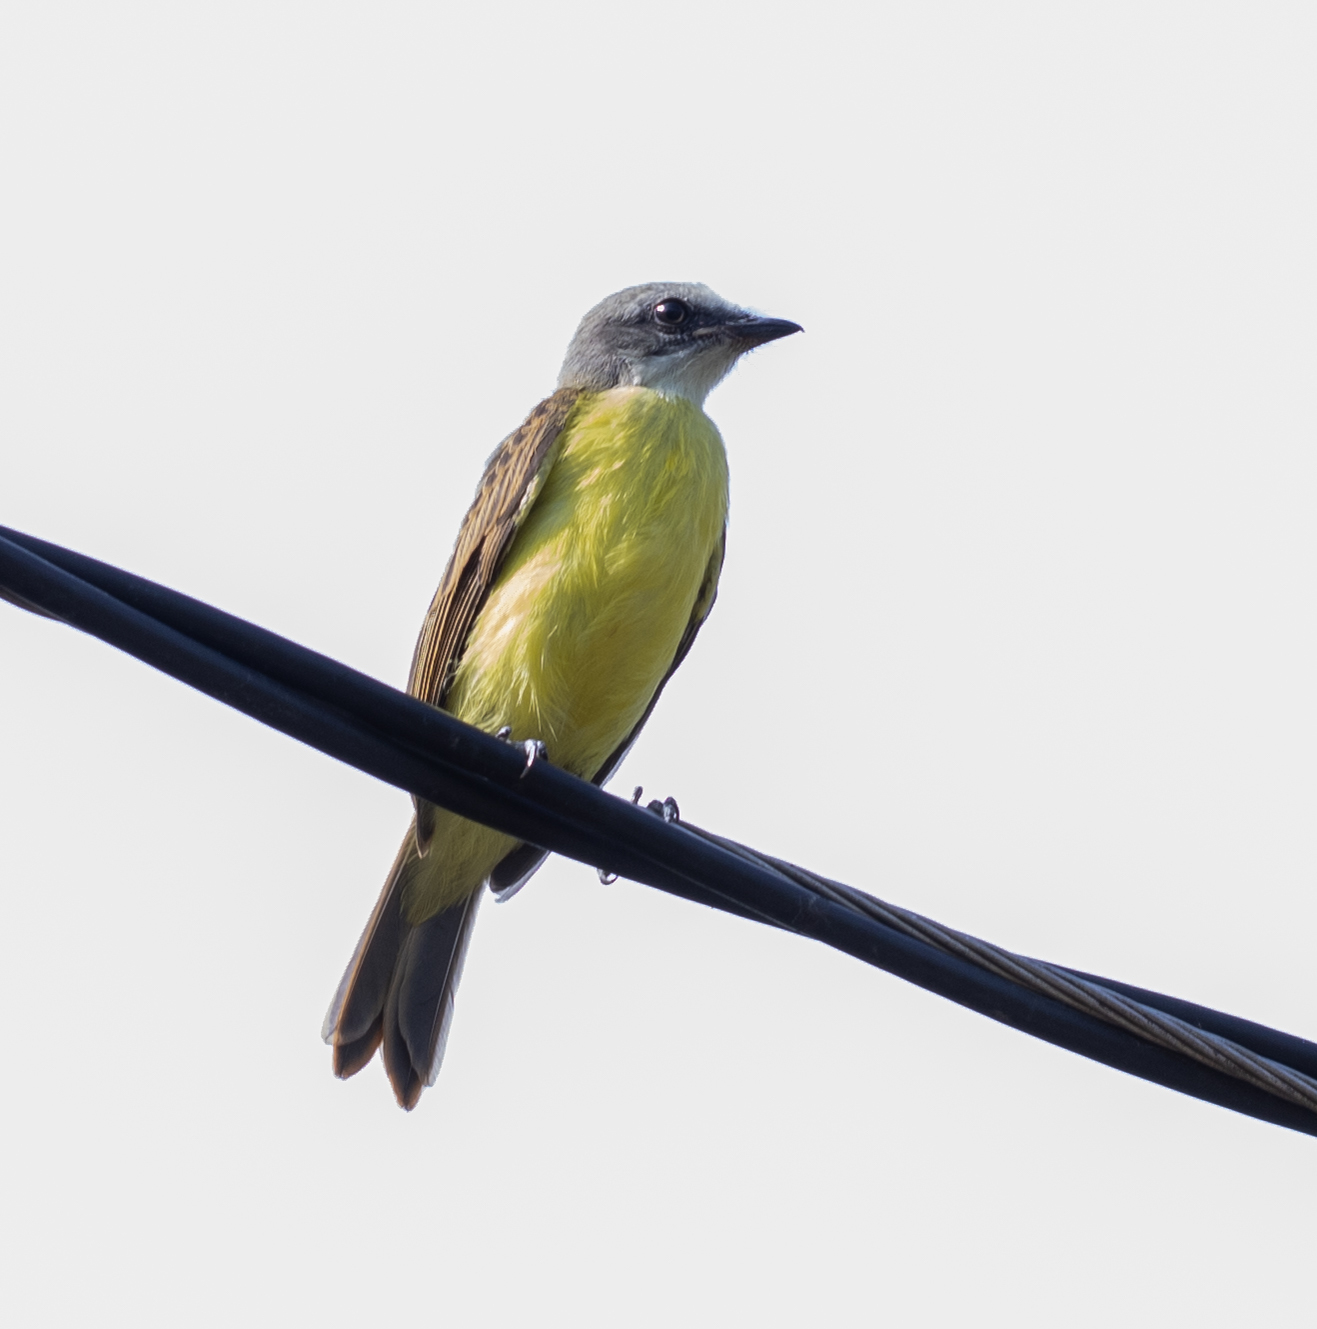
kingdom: Animalia
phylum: Chordata
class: Aves
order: Passeriformes
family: Tyrannidae
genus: Myiozetetes
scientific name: Myiozetetes granadensis
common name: Gray-capped flycatcher
